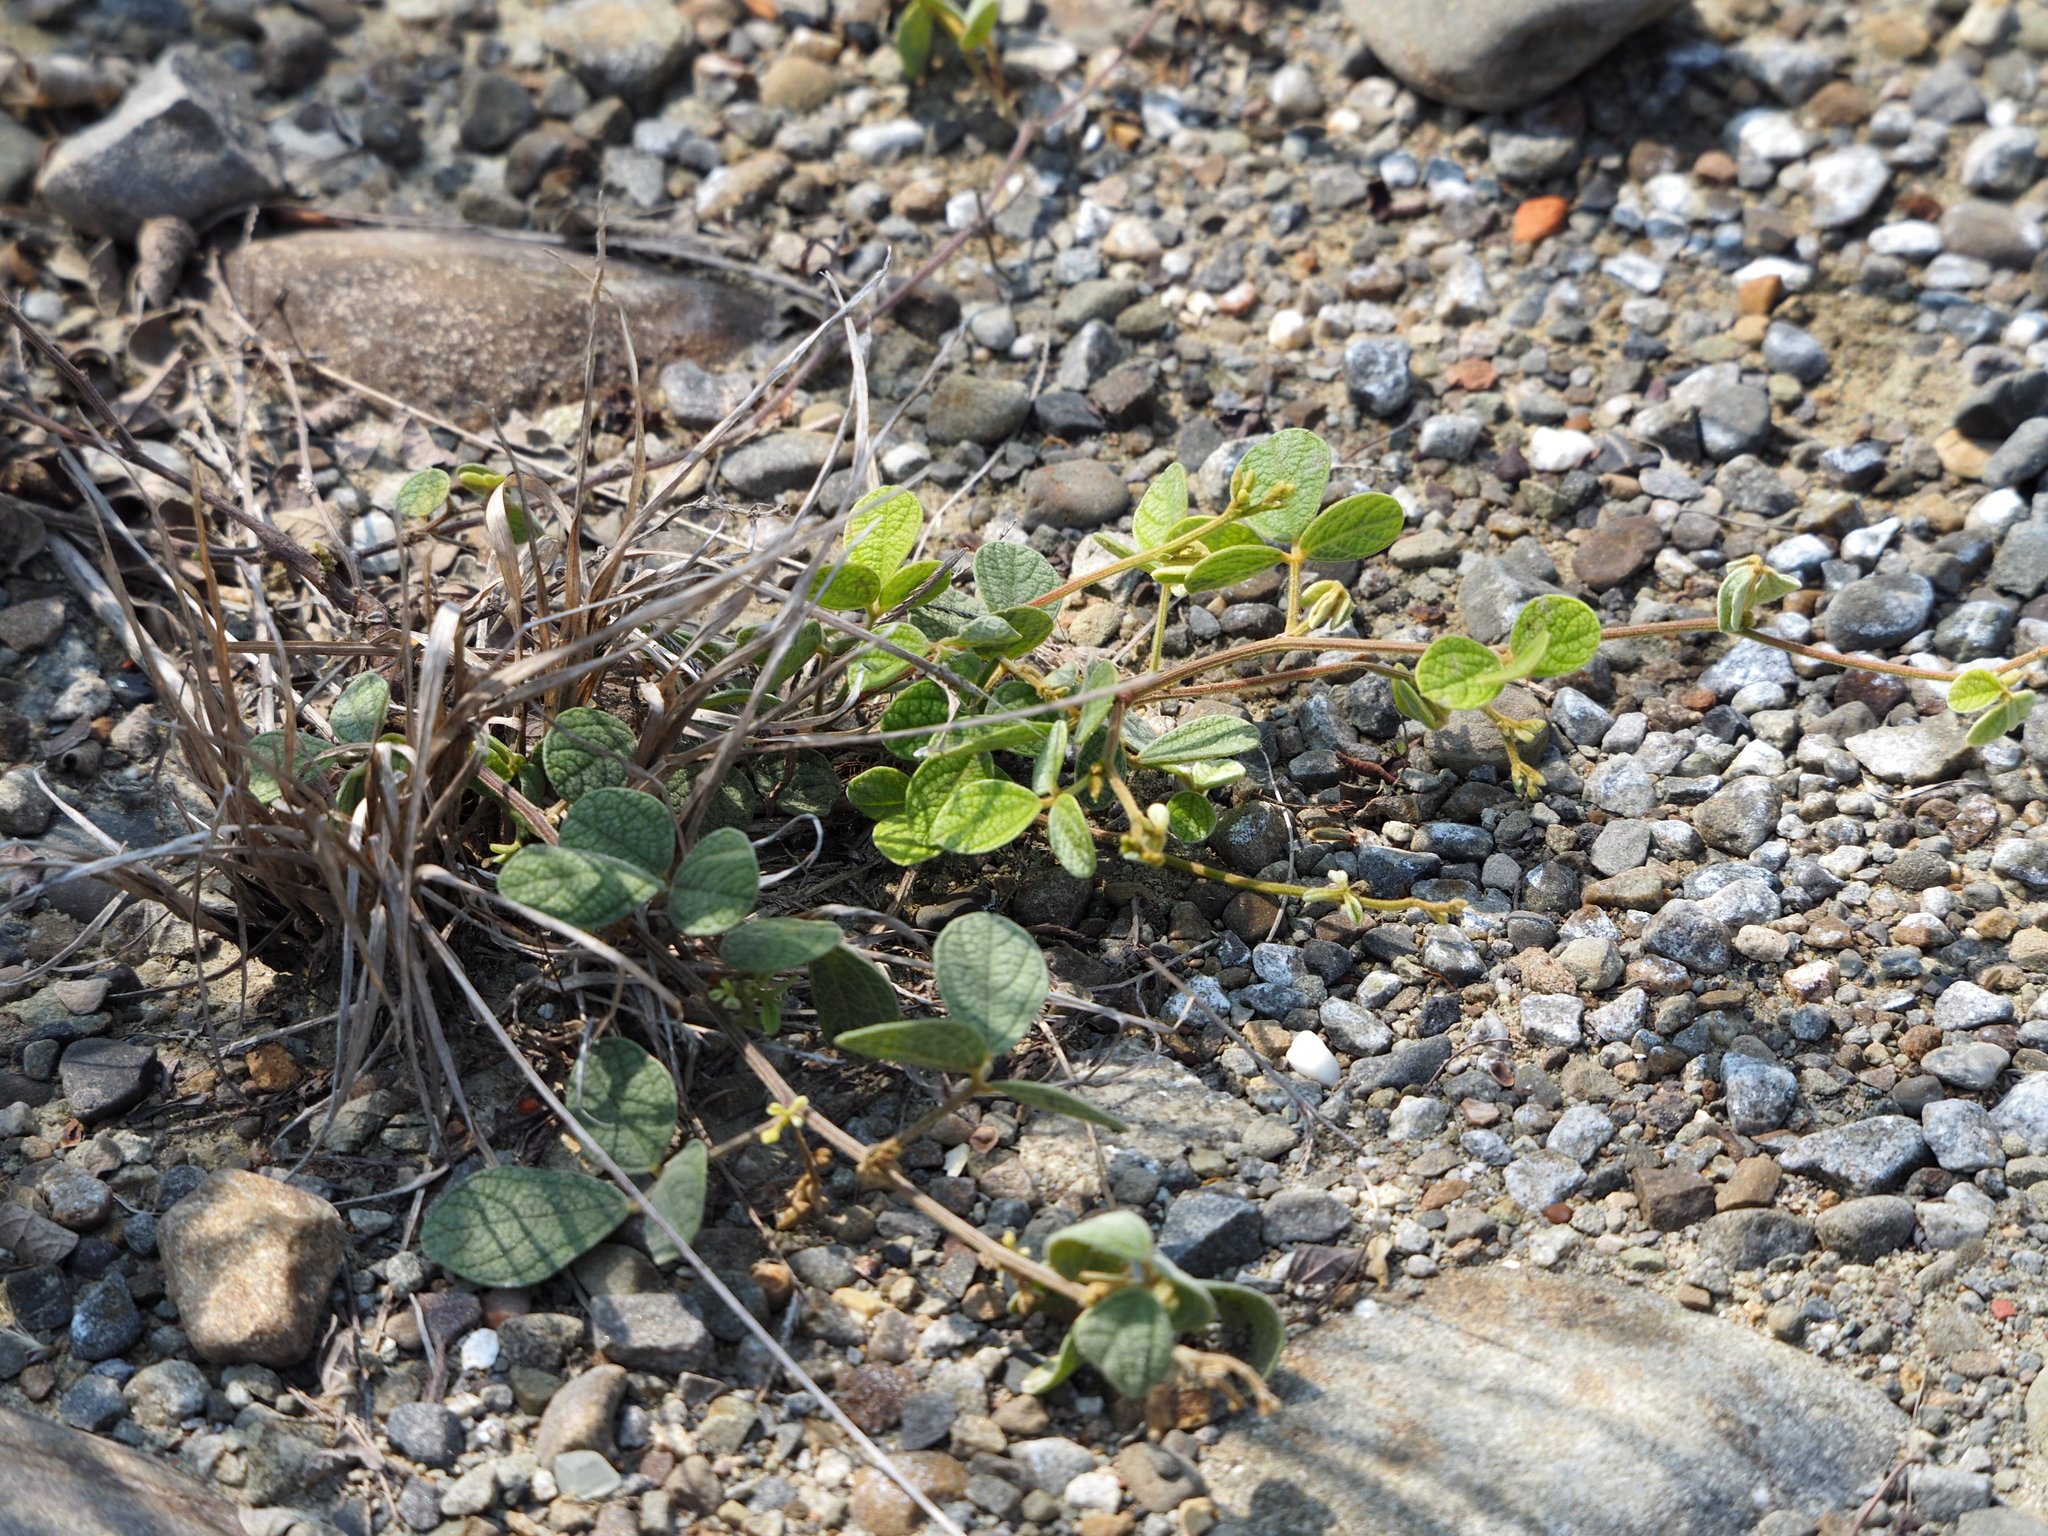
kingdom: Plantae
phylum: Tracheophyta
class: Magnoliopsida
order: Fabales
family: Fabaceae
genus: Cajanus
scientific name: Cajanus scarabaeoides
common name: Showy pigeonpea
